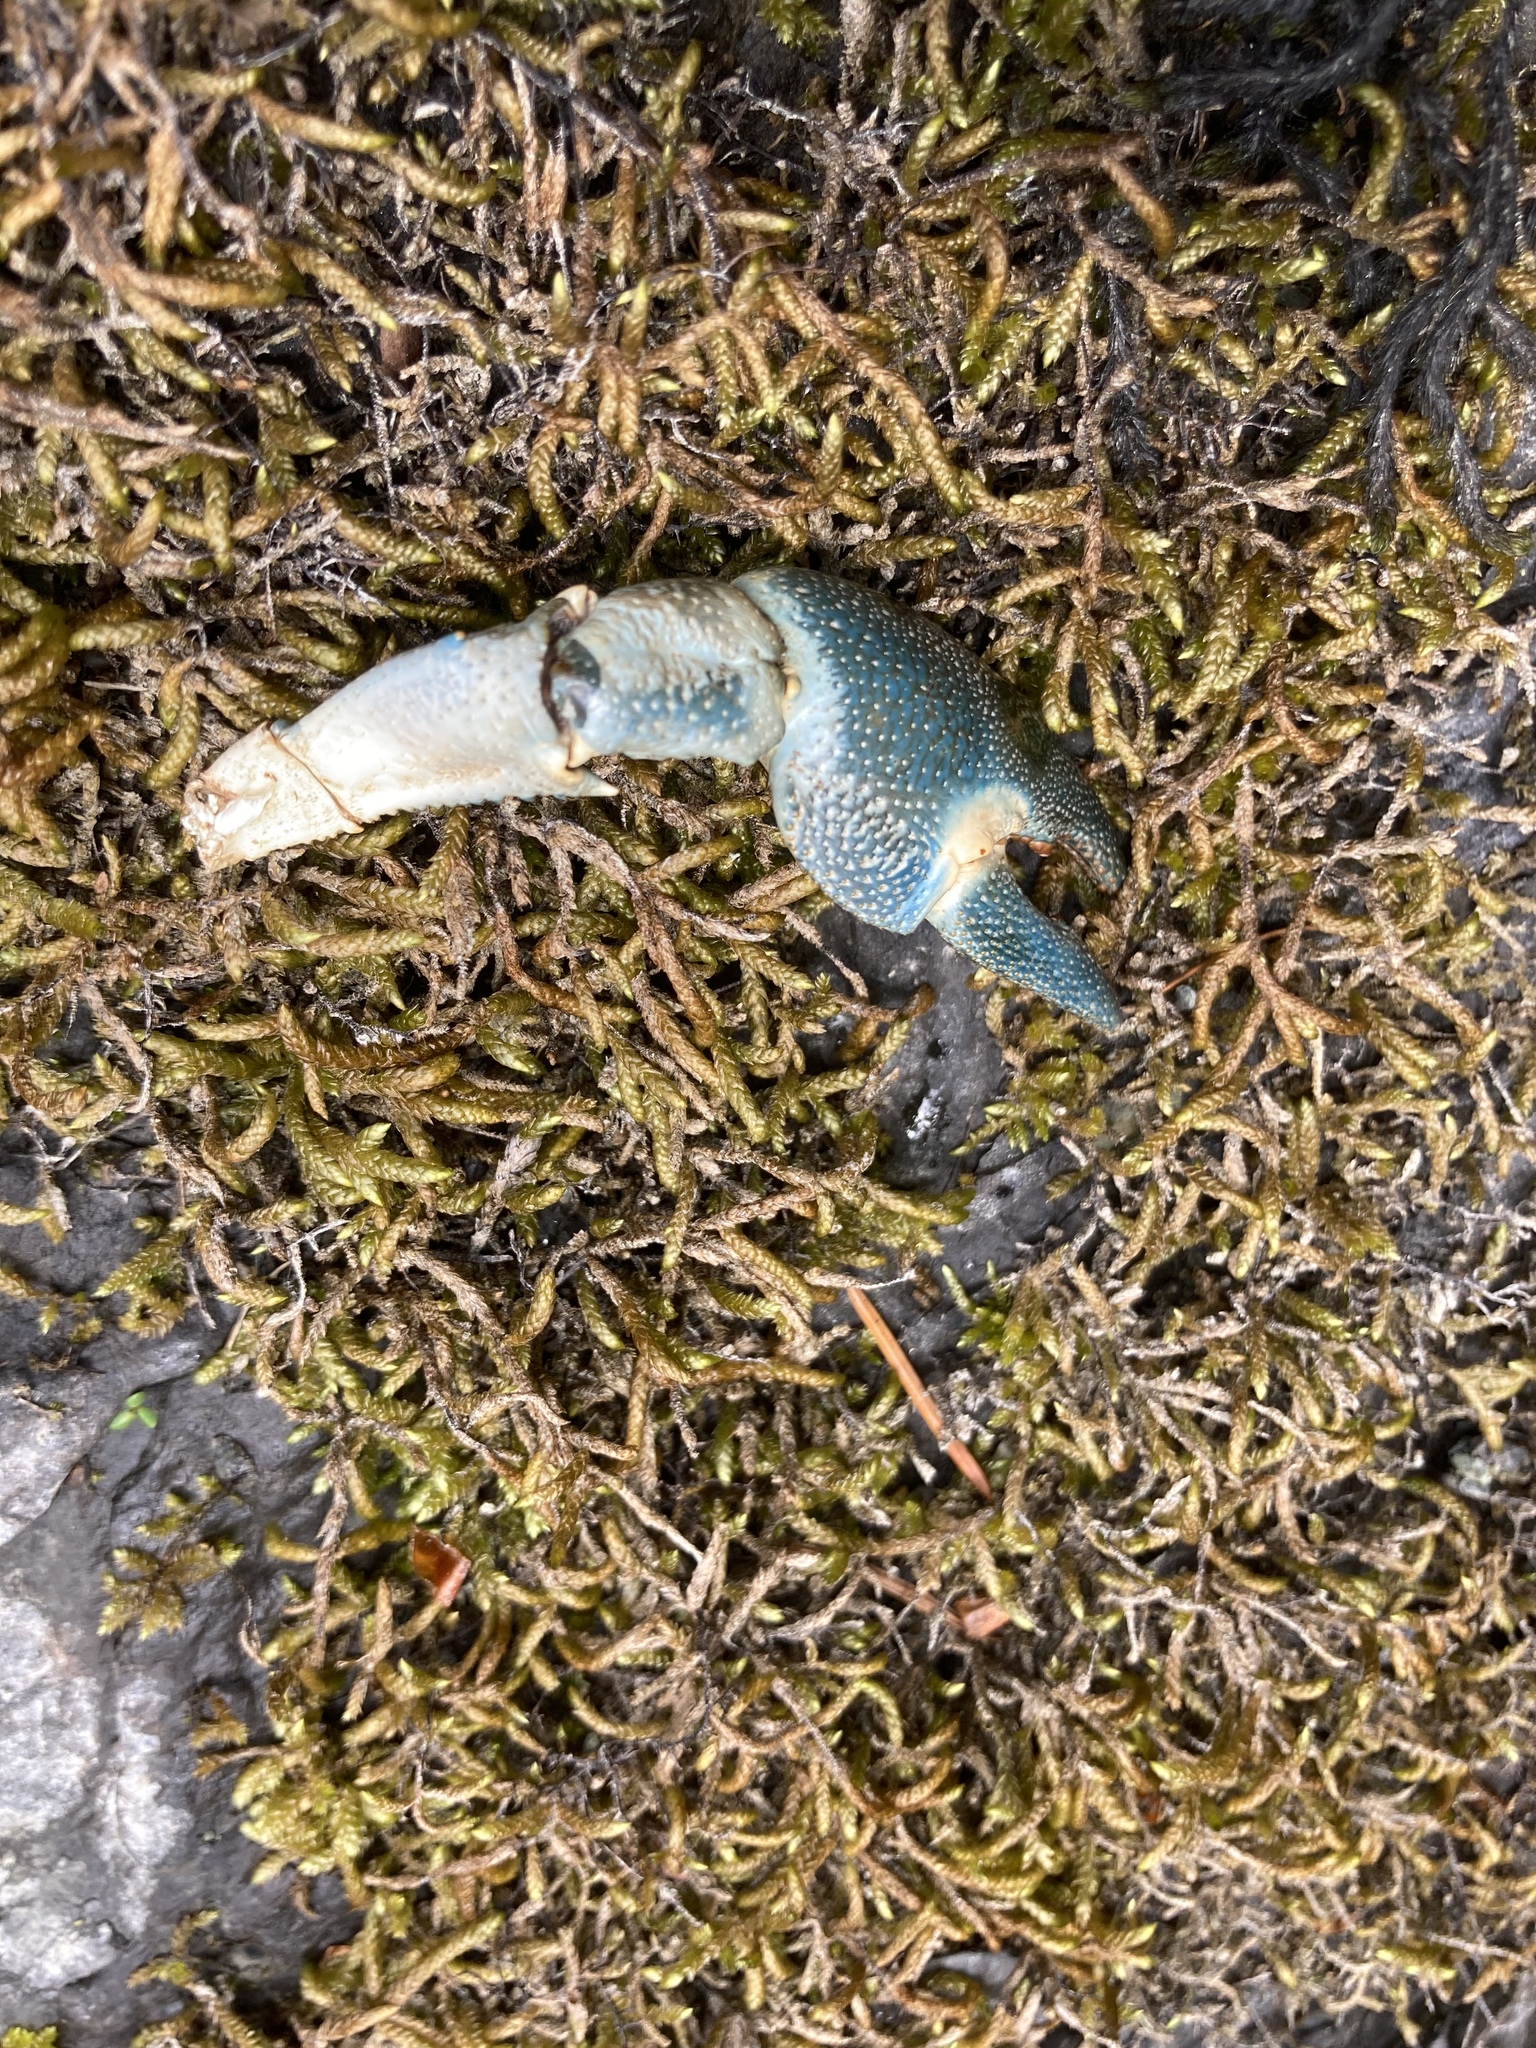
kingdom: Animalia
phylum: Arthropoda
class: Malacostraca
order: Decapoda
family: Astacidae
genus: Pacifastacus
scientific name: Pacifastacus leniusculus
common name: Signal crayfish
